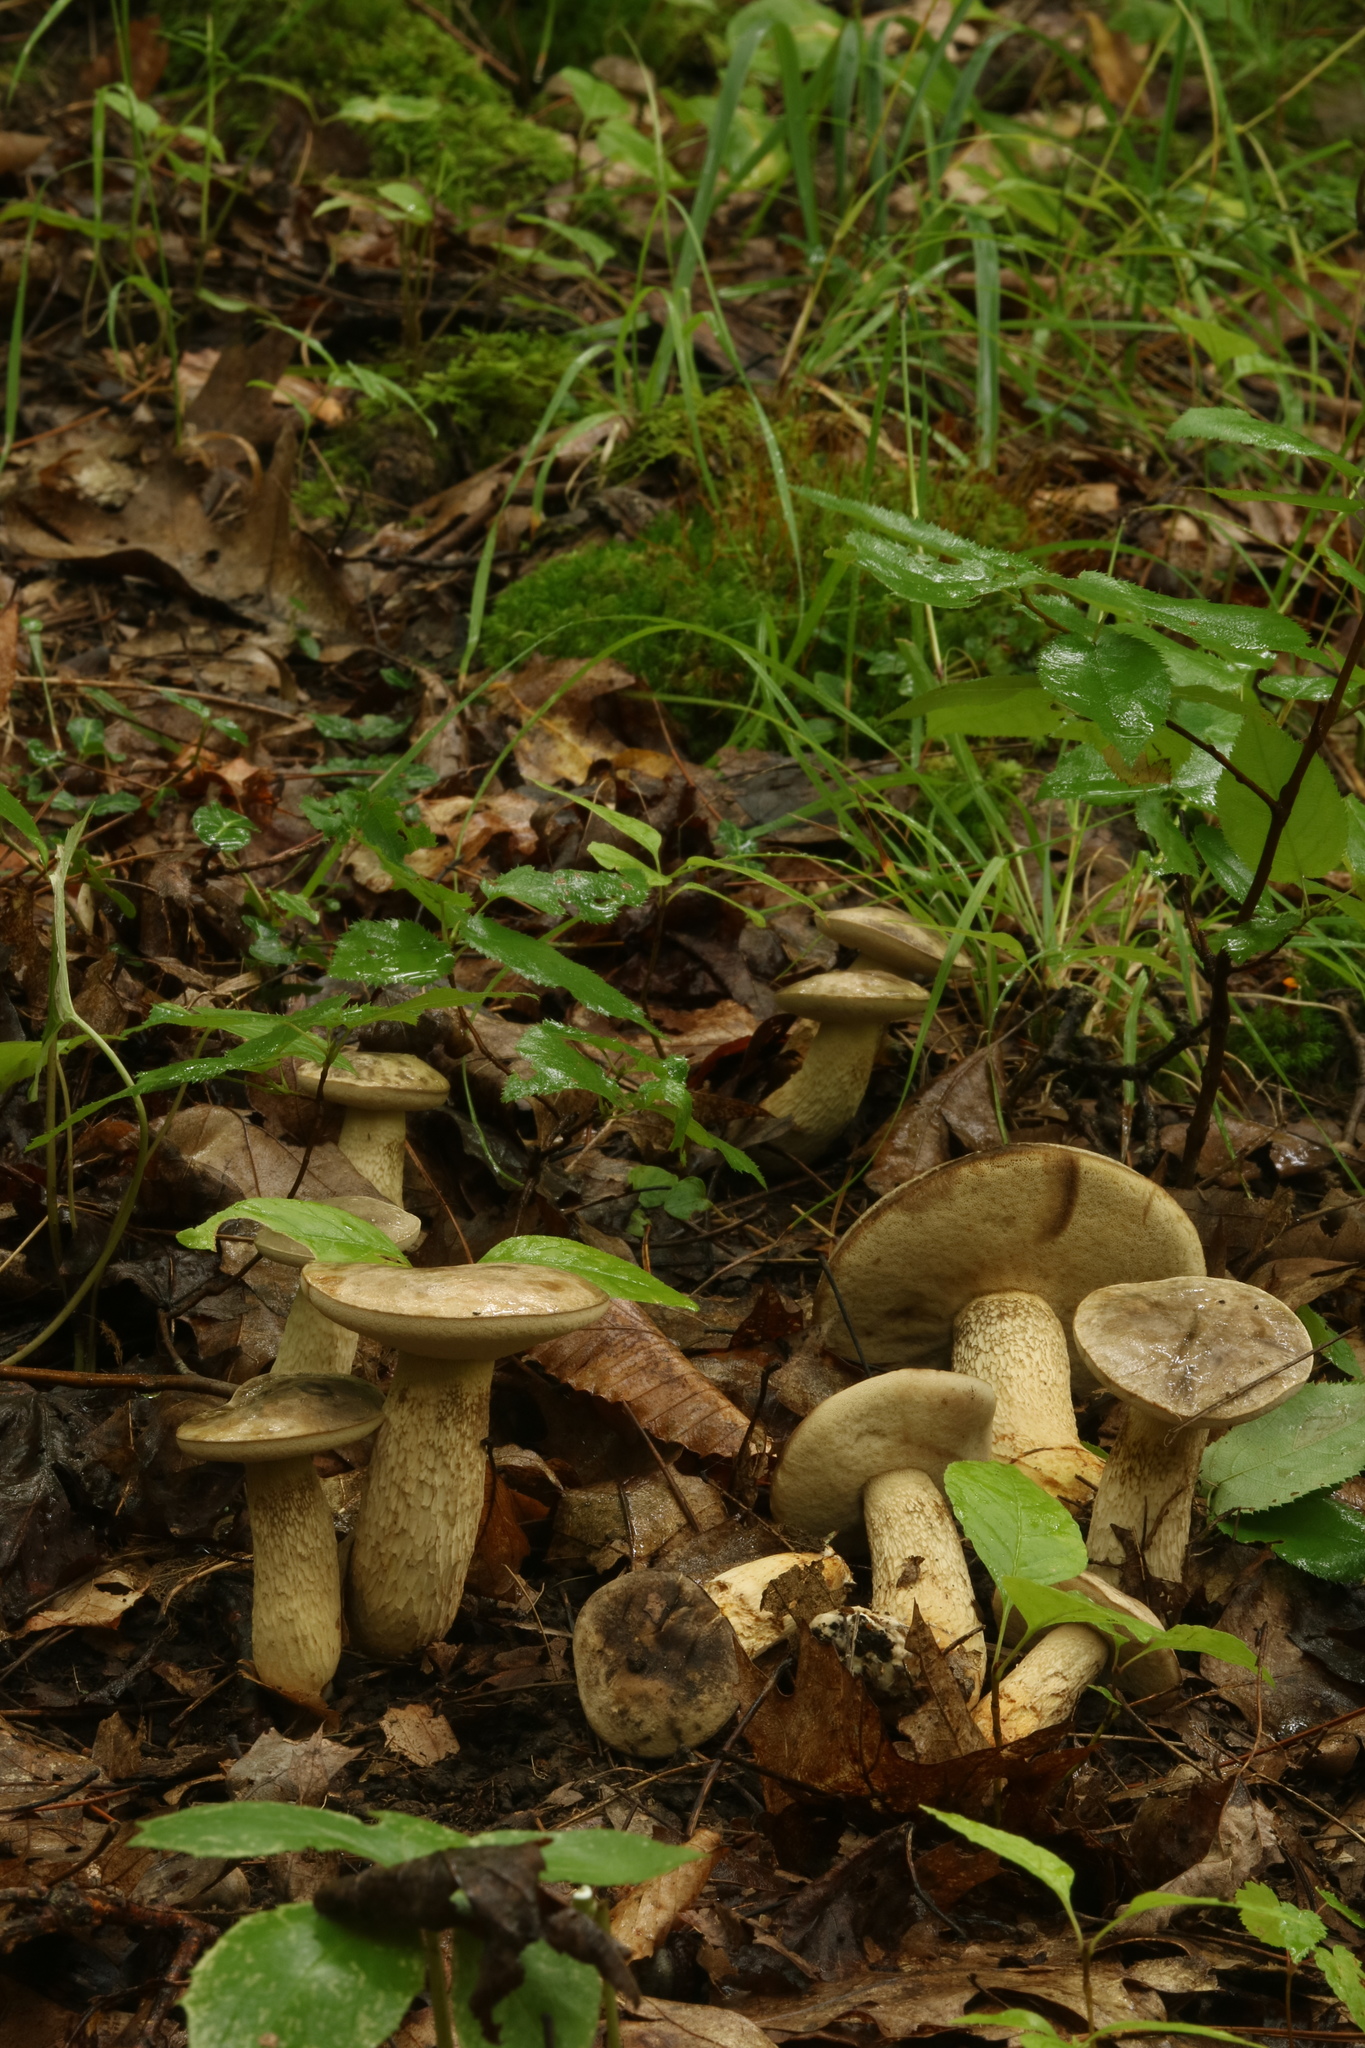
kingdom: Fungi
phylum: Basidiomycota
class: Agaricomycetes
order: Boletales
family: Boletaceae
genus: Retiboletus
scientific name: Retiboletus griseus
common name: Grey bolete
